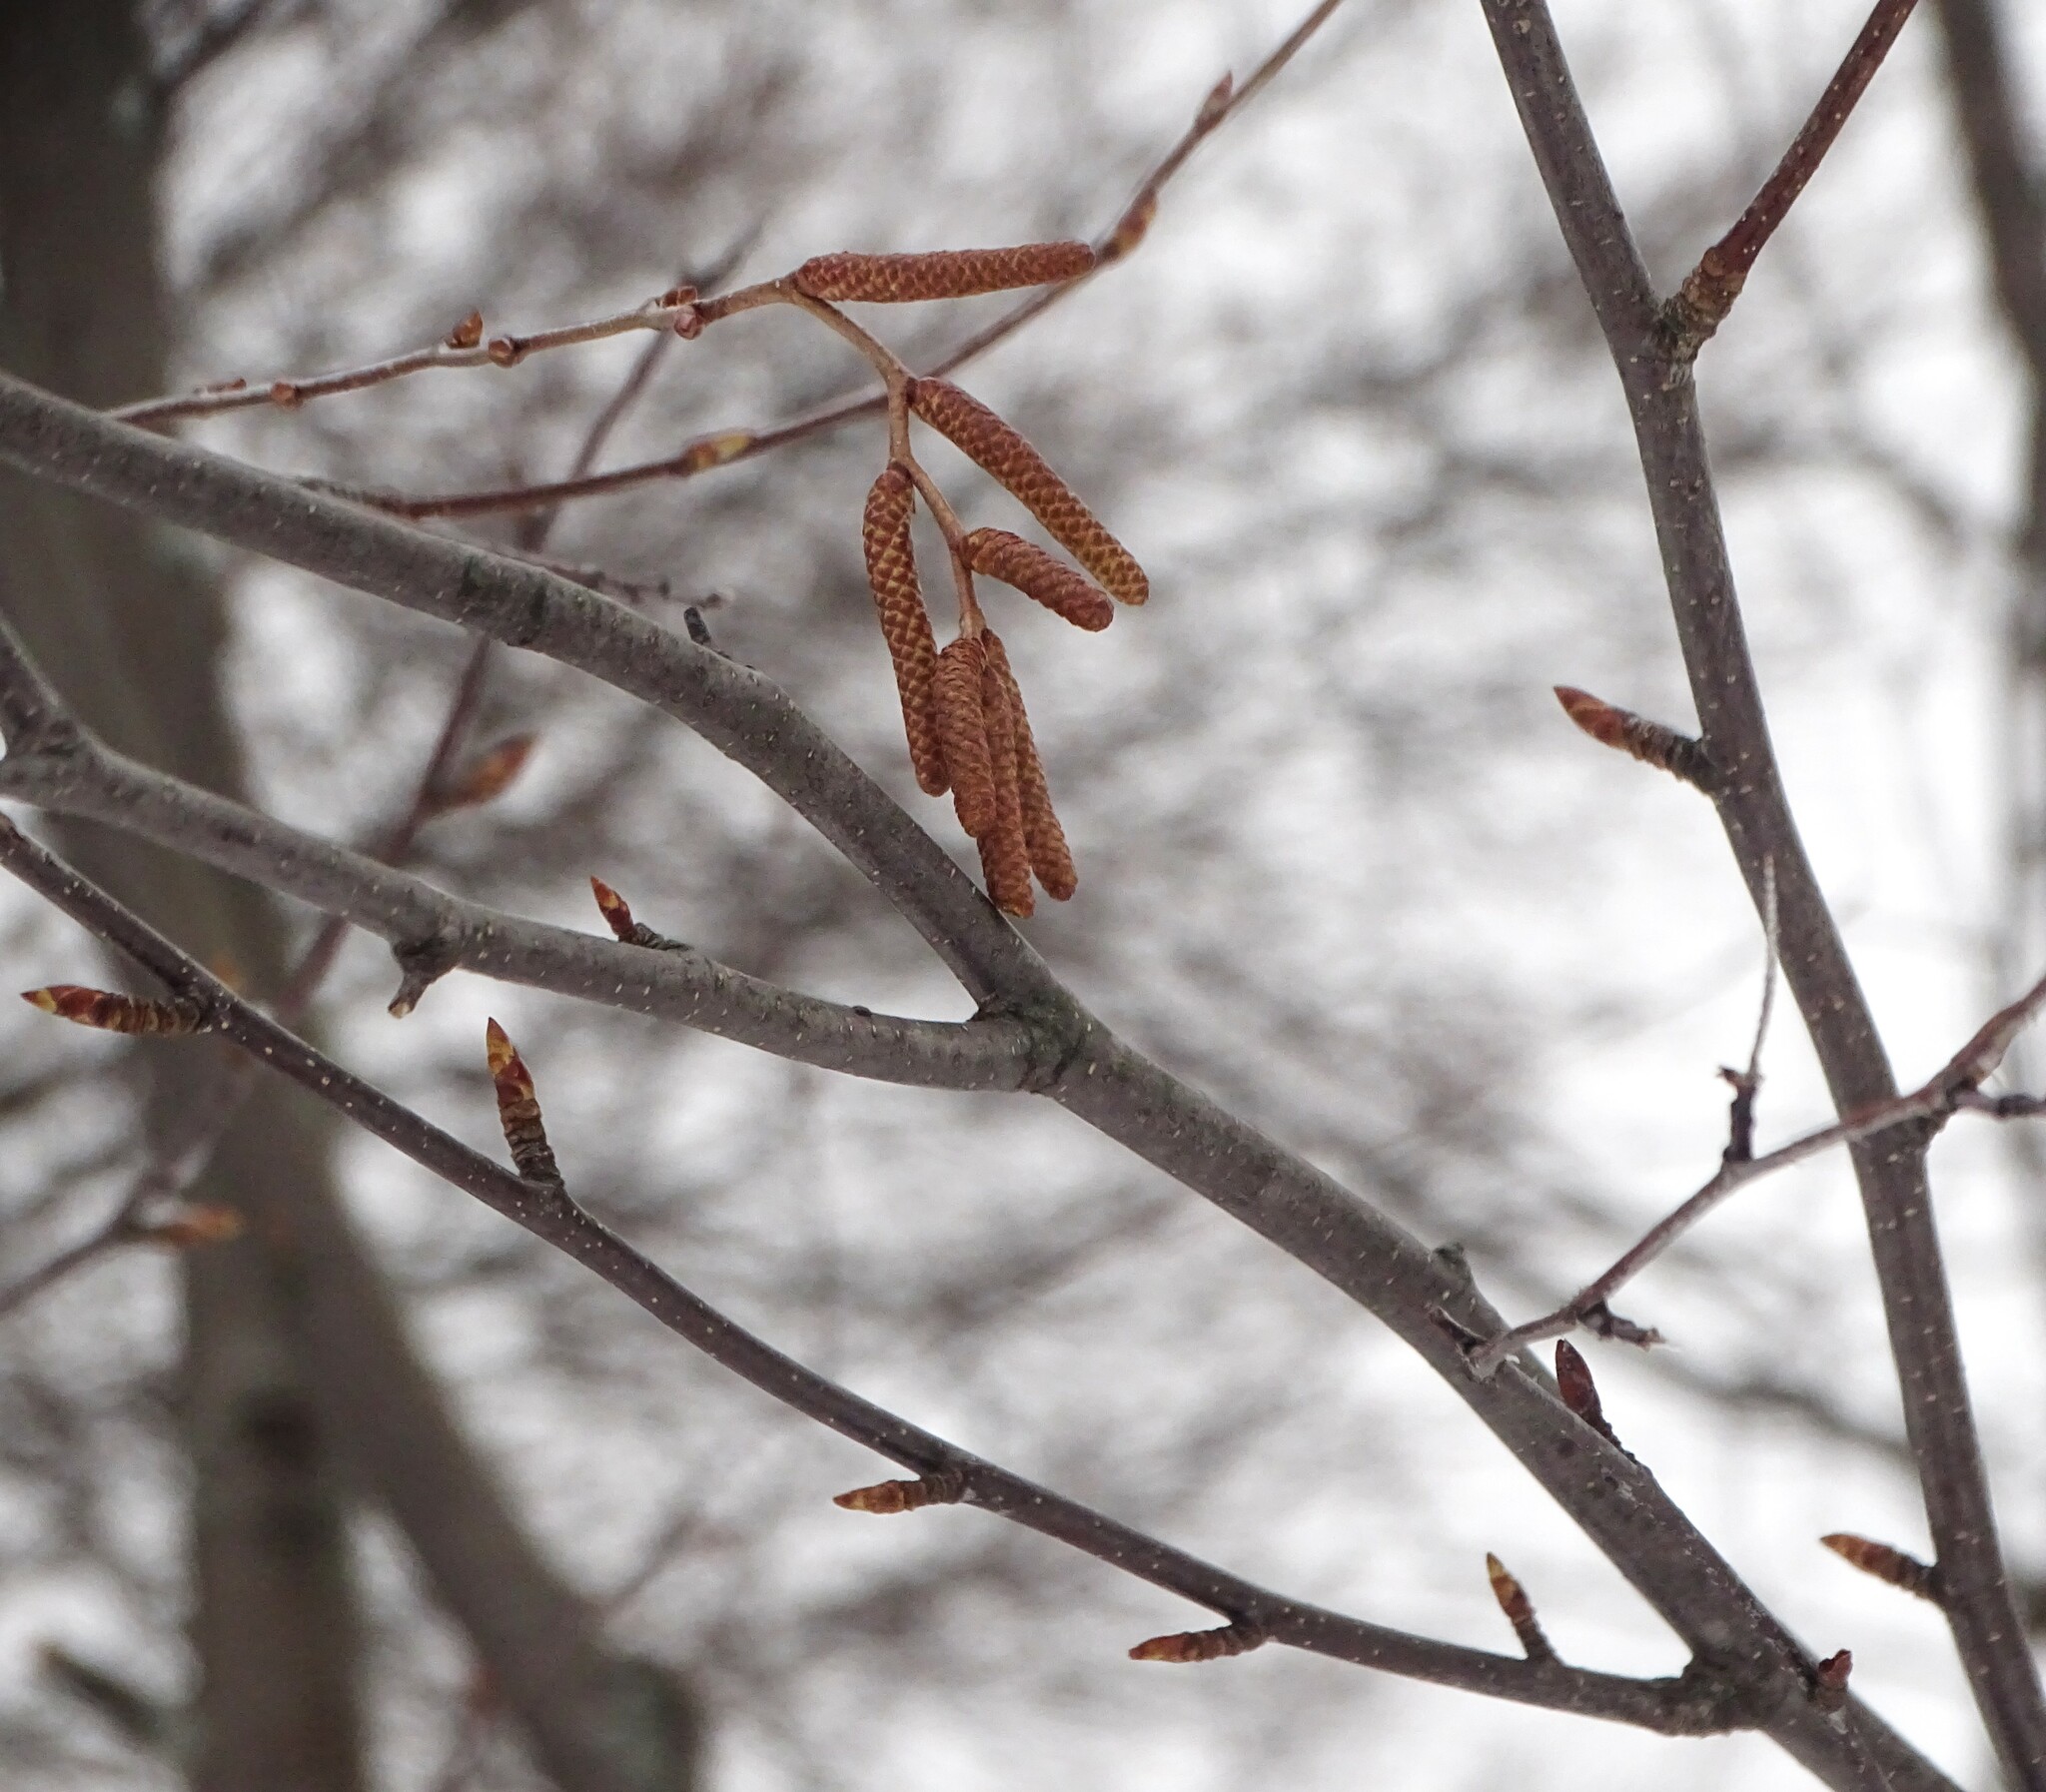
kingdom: Plantae
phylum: Tracheophyta
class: Magnoliopsida
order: Fagales
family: Betulaceae
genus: Betula
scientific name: Betula lenta
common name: Black birch
